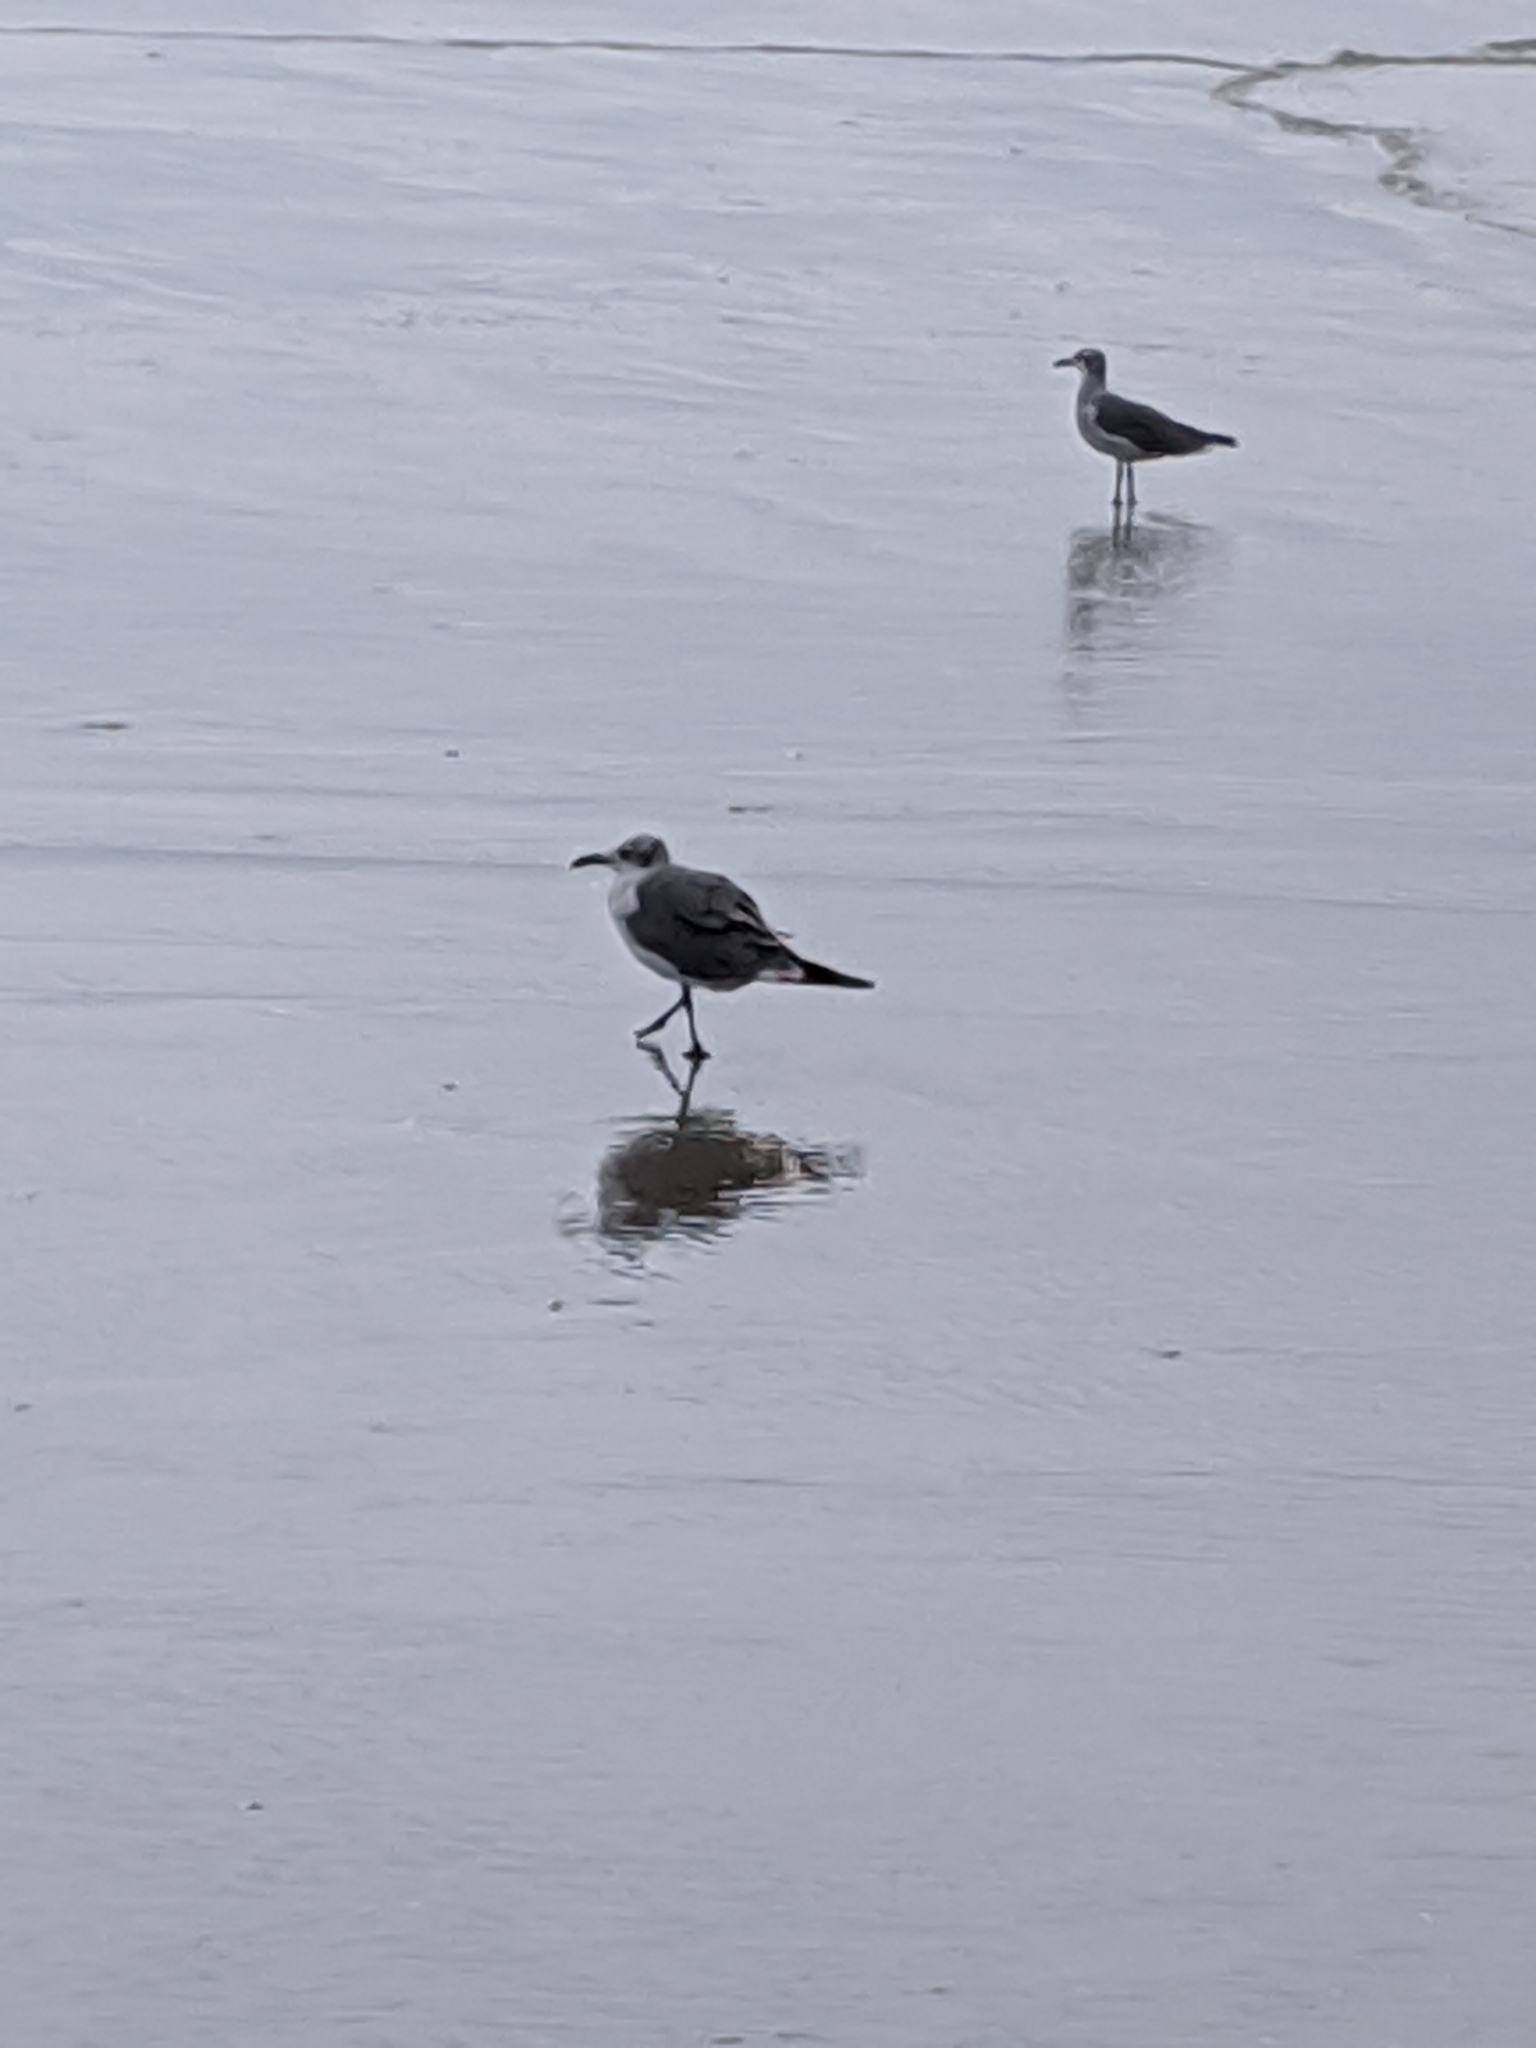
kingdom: Animalia
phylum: Chordata
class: Aves
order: Charadriiformes
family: Laridae
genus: Leucophaeus
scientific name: Leucophaeus atricilla
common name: Laughing gull
